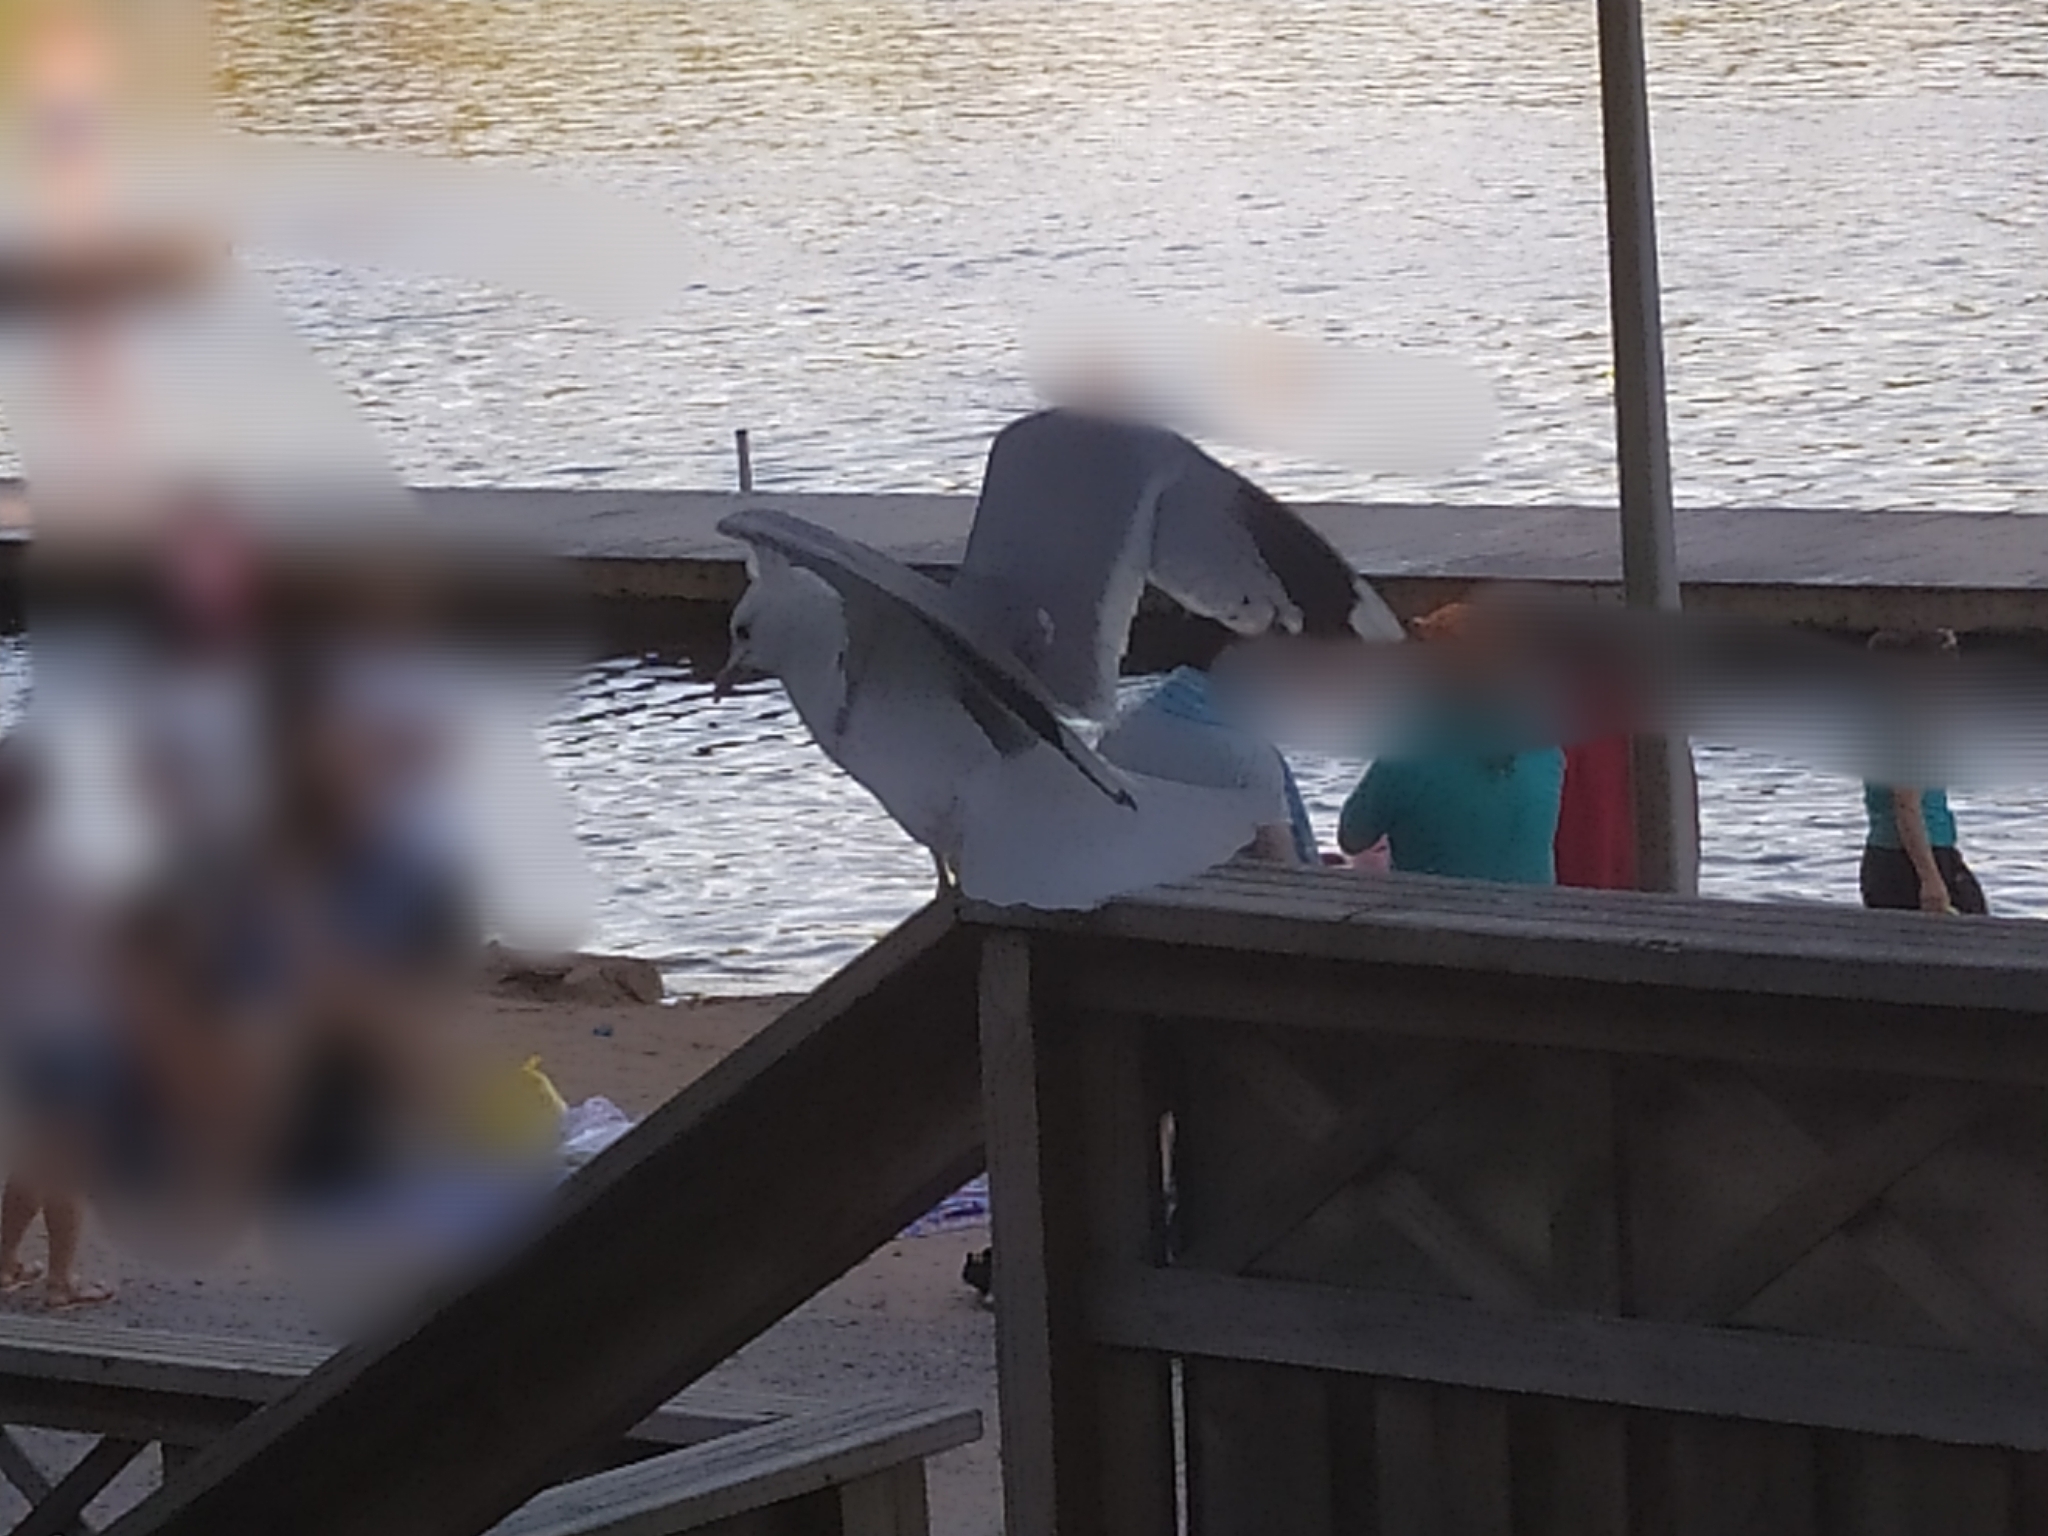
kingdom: Animalia
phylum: Chordata
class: Aves
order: Charadriiformes
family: Laridae
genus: Larus
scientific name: Larus canus
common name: Mew gull
